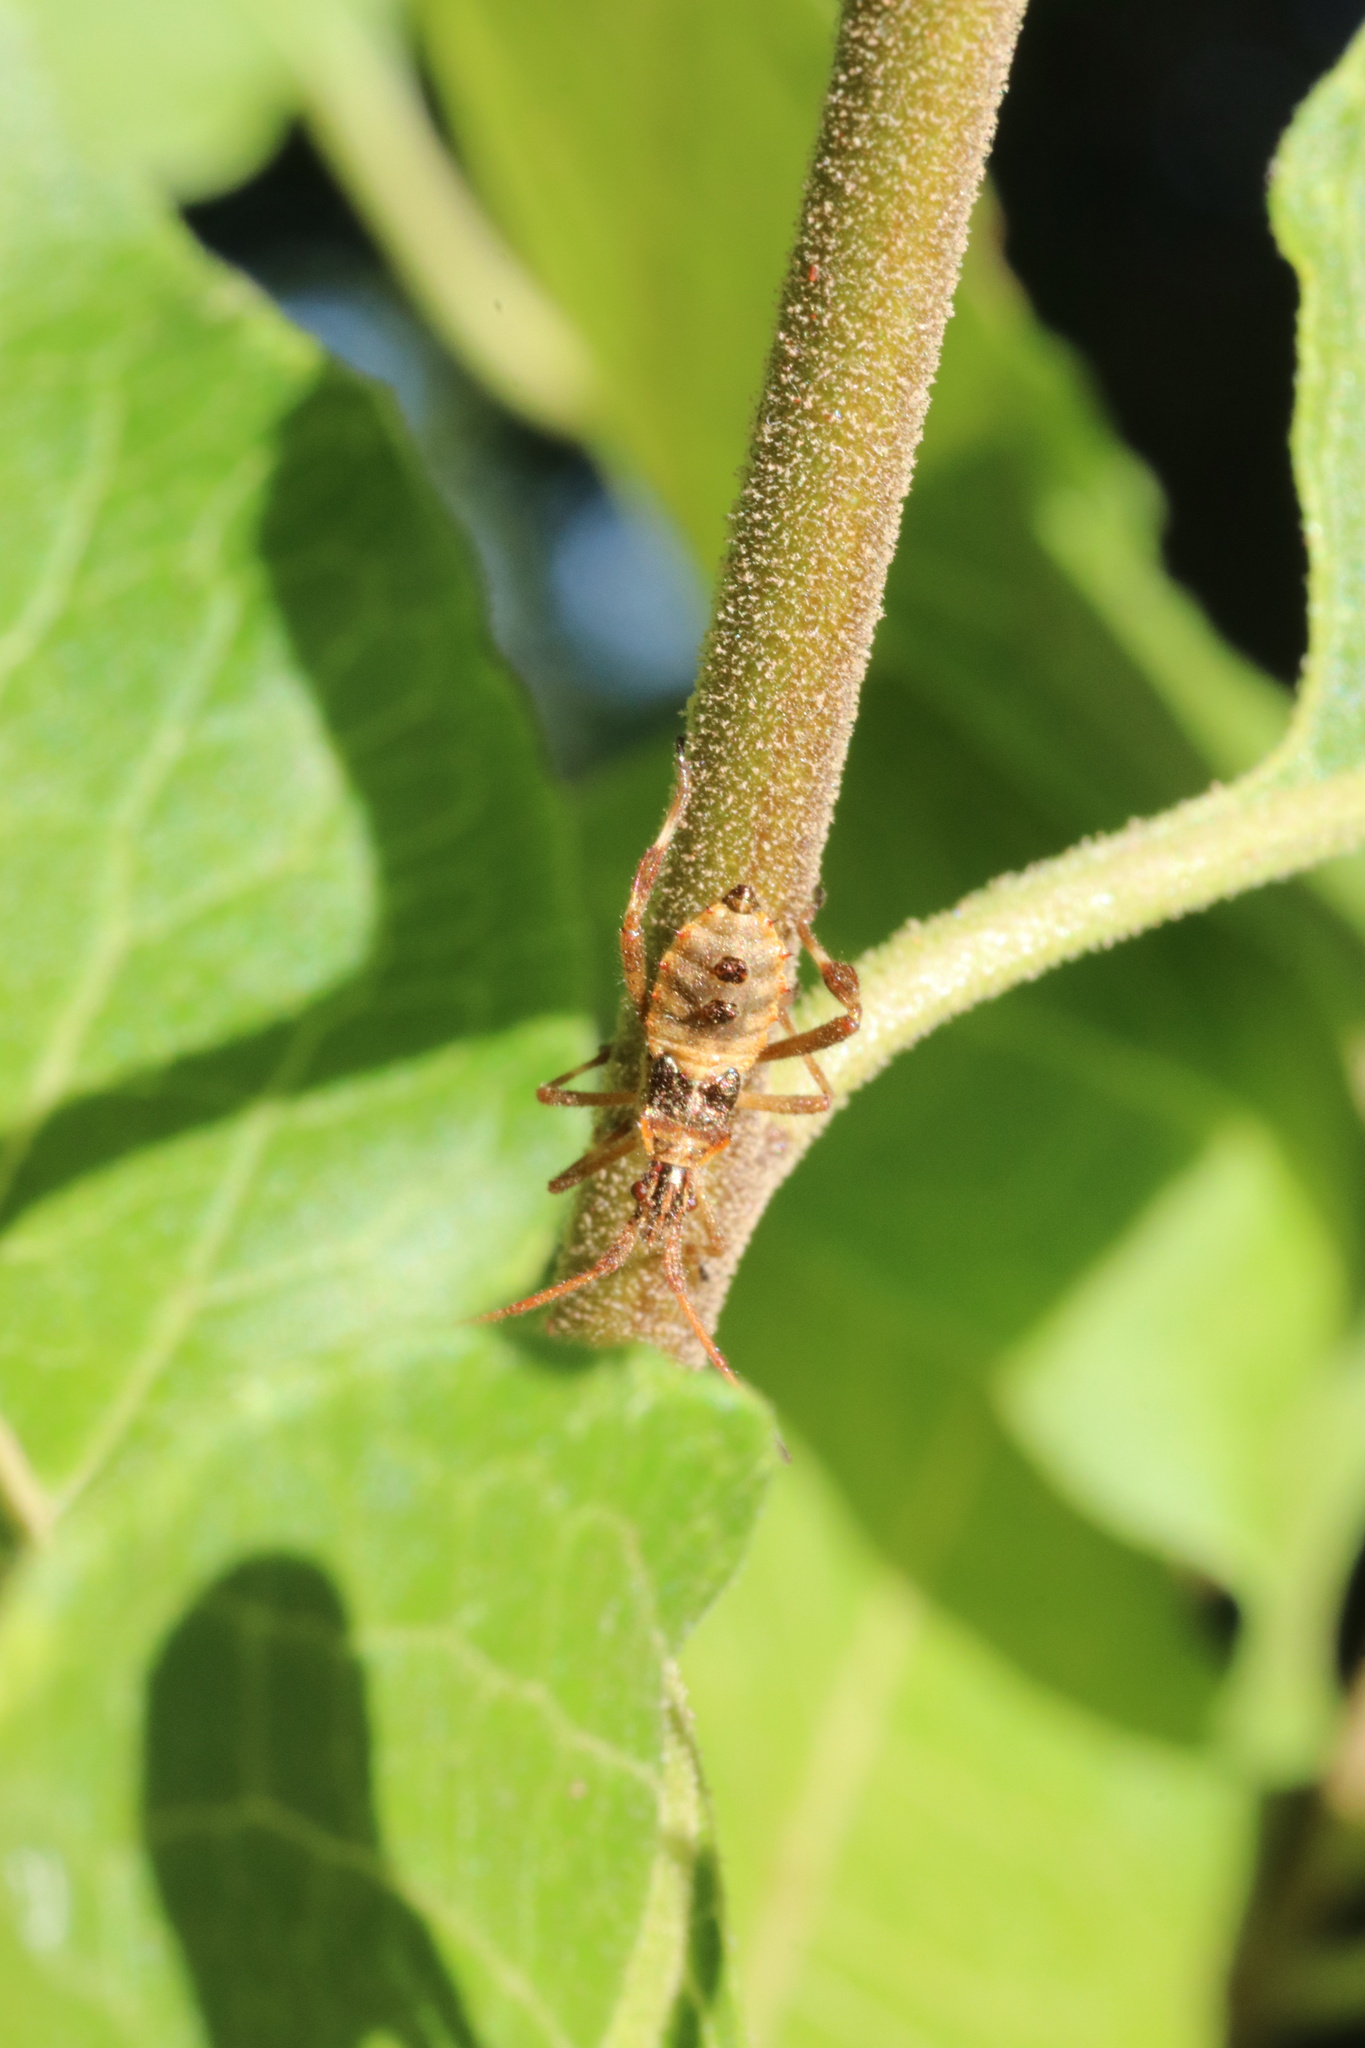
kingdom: Animalia
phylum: Arthropoda
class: Insecta
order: Hemiptera
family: Coreidae
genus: Leptoglossus
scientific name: Leptoglossus chilensis
